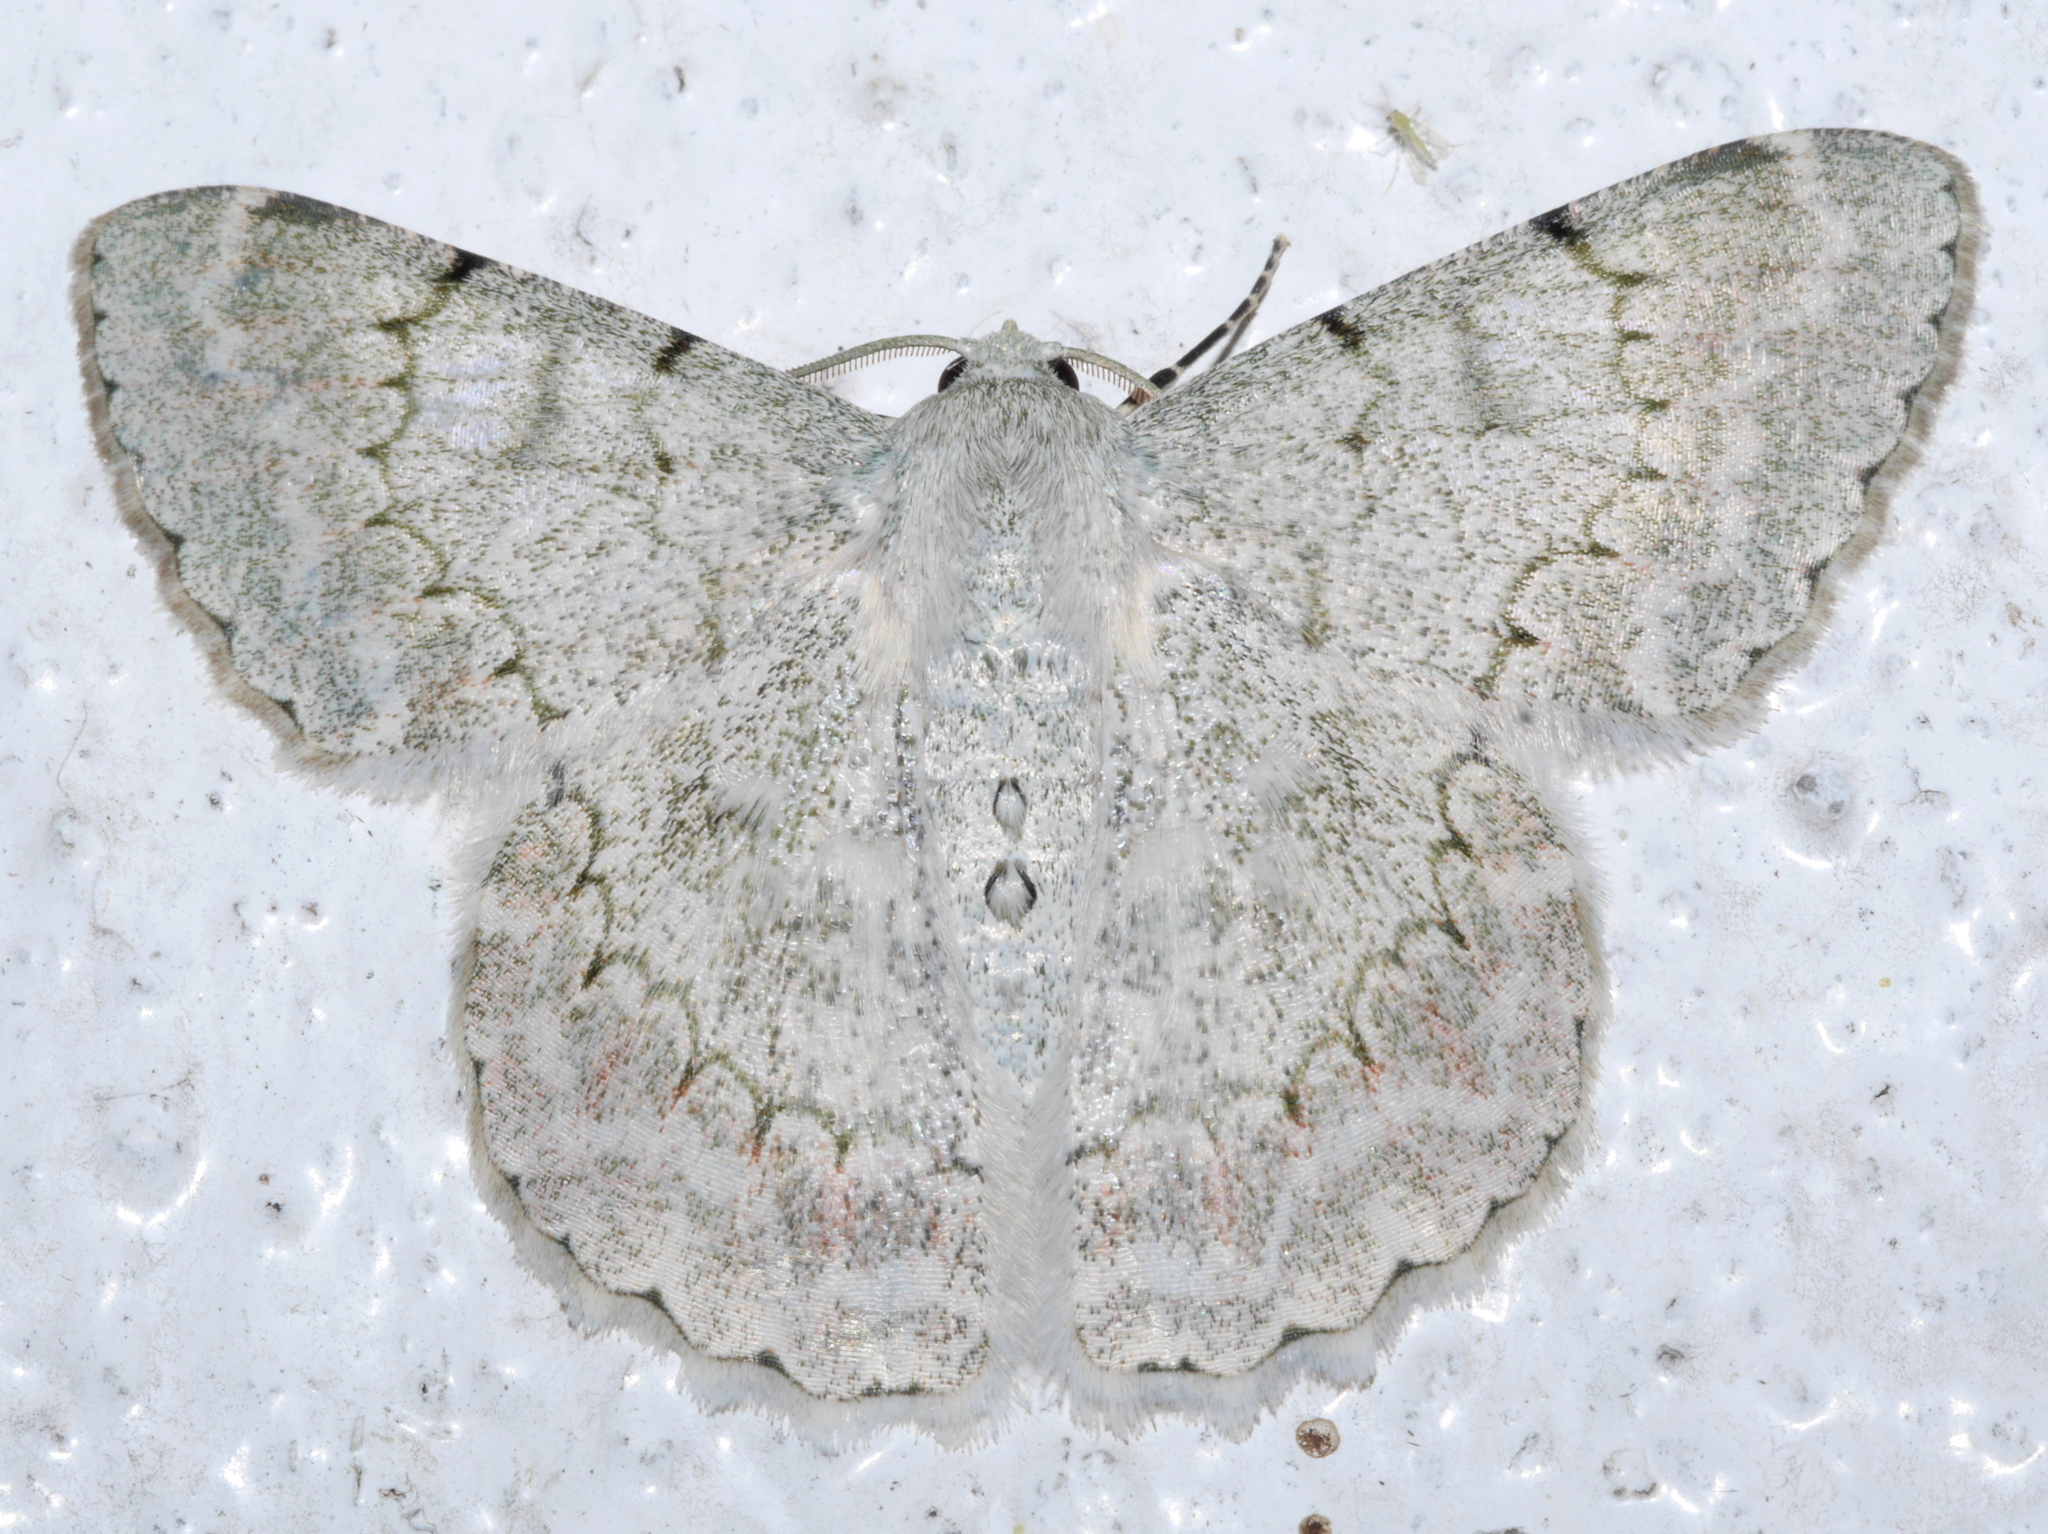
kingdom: Animalia
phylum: Arthropoda
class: Insecta
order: Lepidoptera
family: Geometridae
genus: Pingasa
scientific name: Pingasa distensaria
